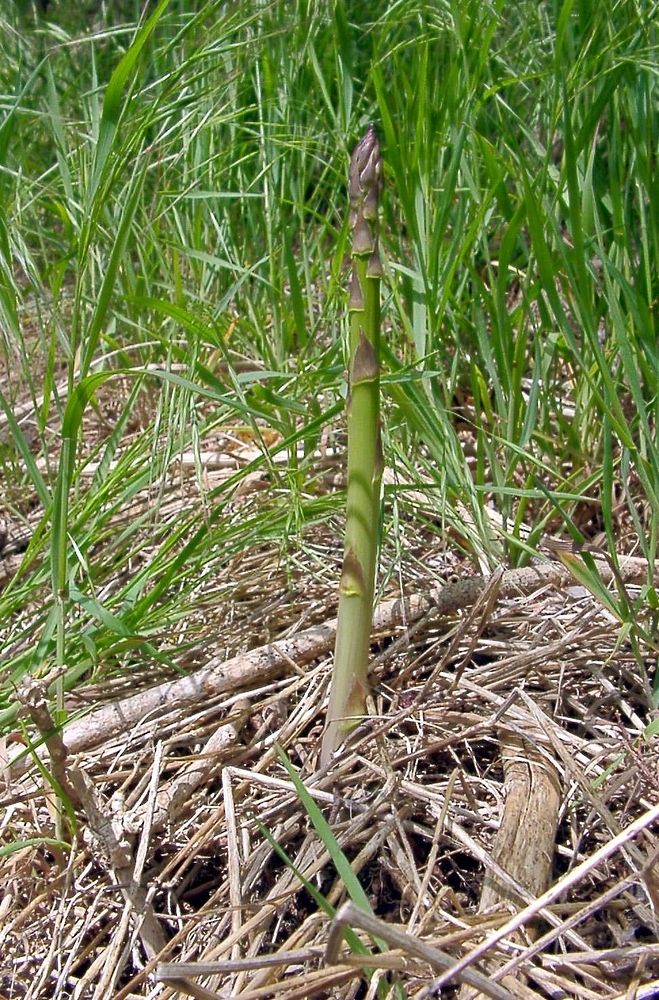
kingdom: Plantae
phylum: Tracheophyta
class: Liliopsida
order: Asparagales
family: Asparagaceae
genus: Asparagus
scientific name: Asparagus officinalis
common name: Garden asparagus
